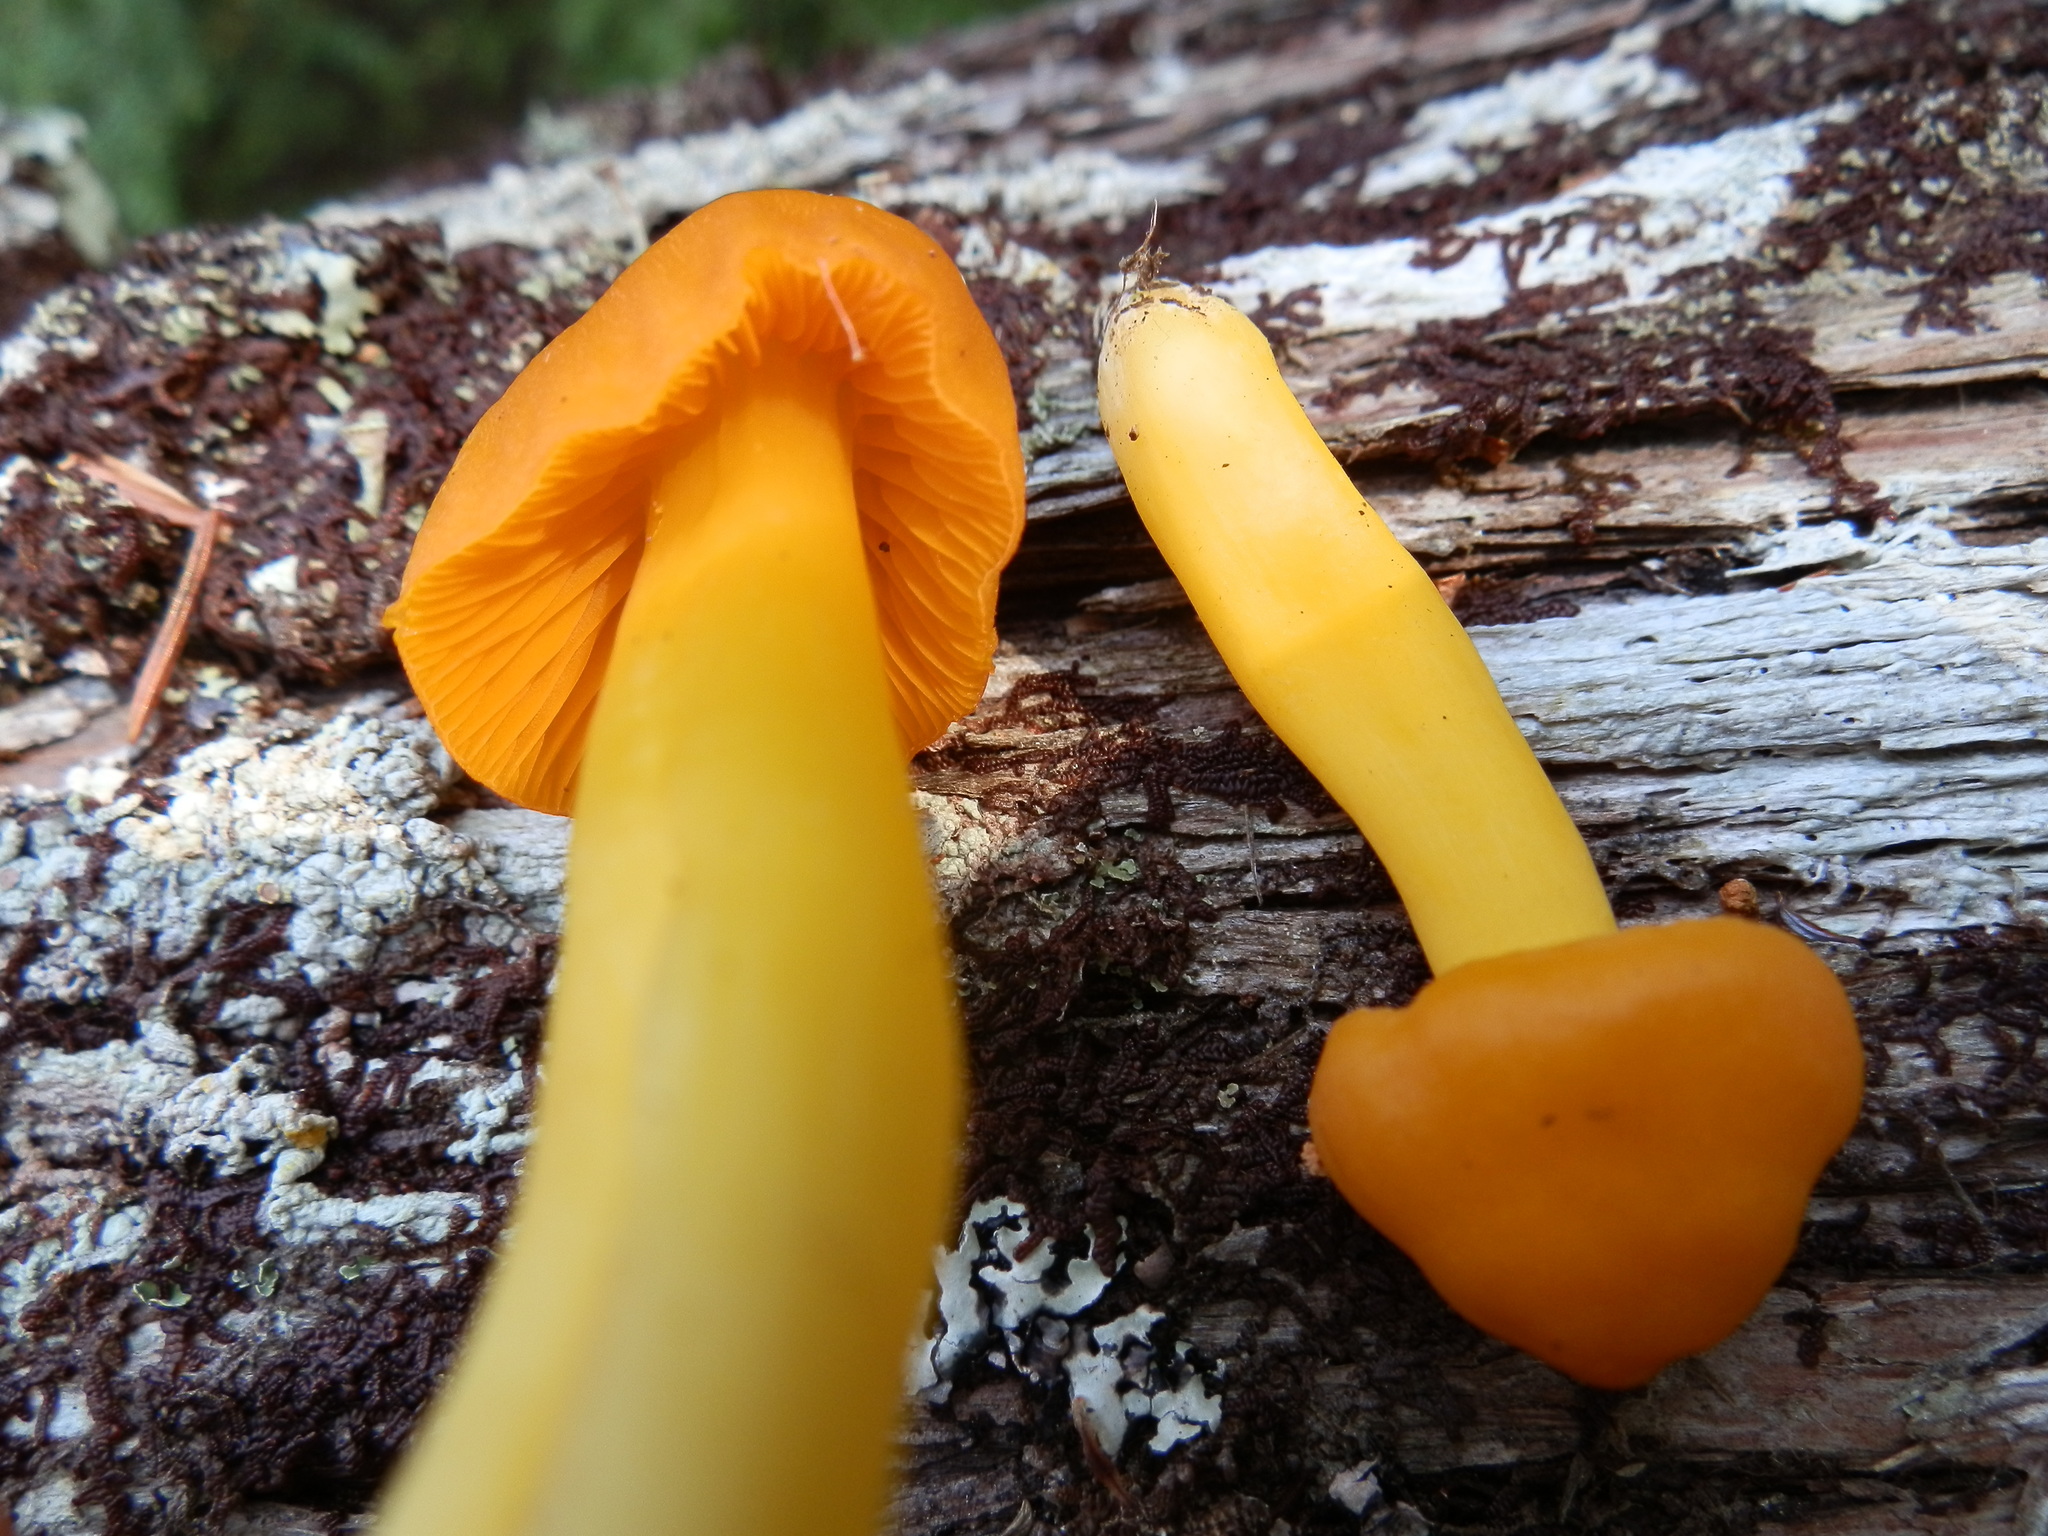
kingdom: Fungi
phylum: Basidiomycota
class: Agaricomycetes
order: Agaricales
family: Hygrophoraceae
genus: Humidicutis
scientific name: Humidicutis marginata
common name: Orange gilled waxcap
